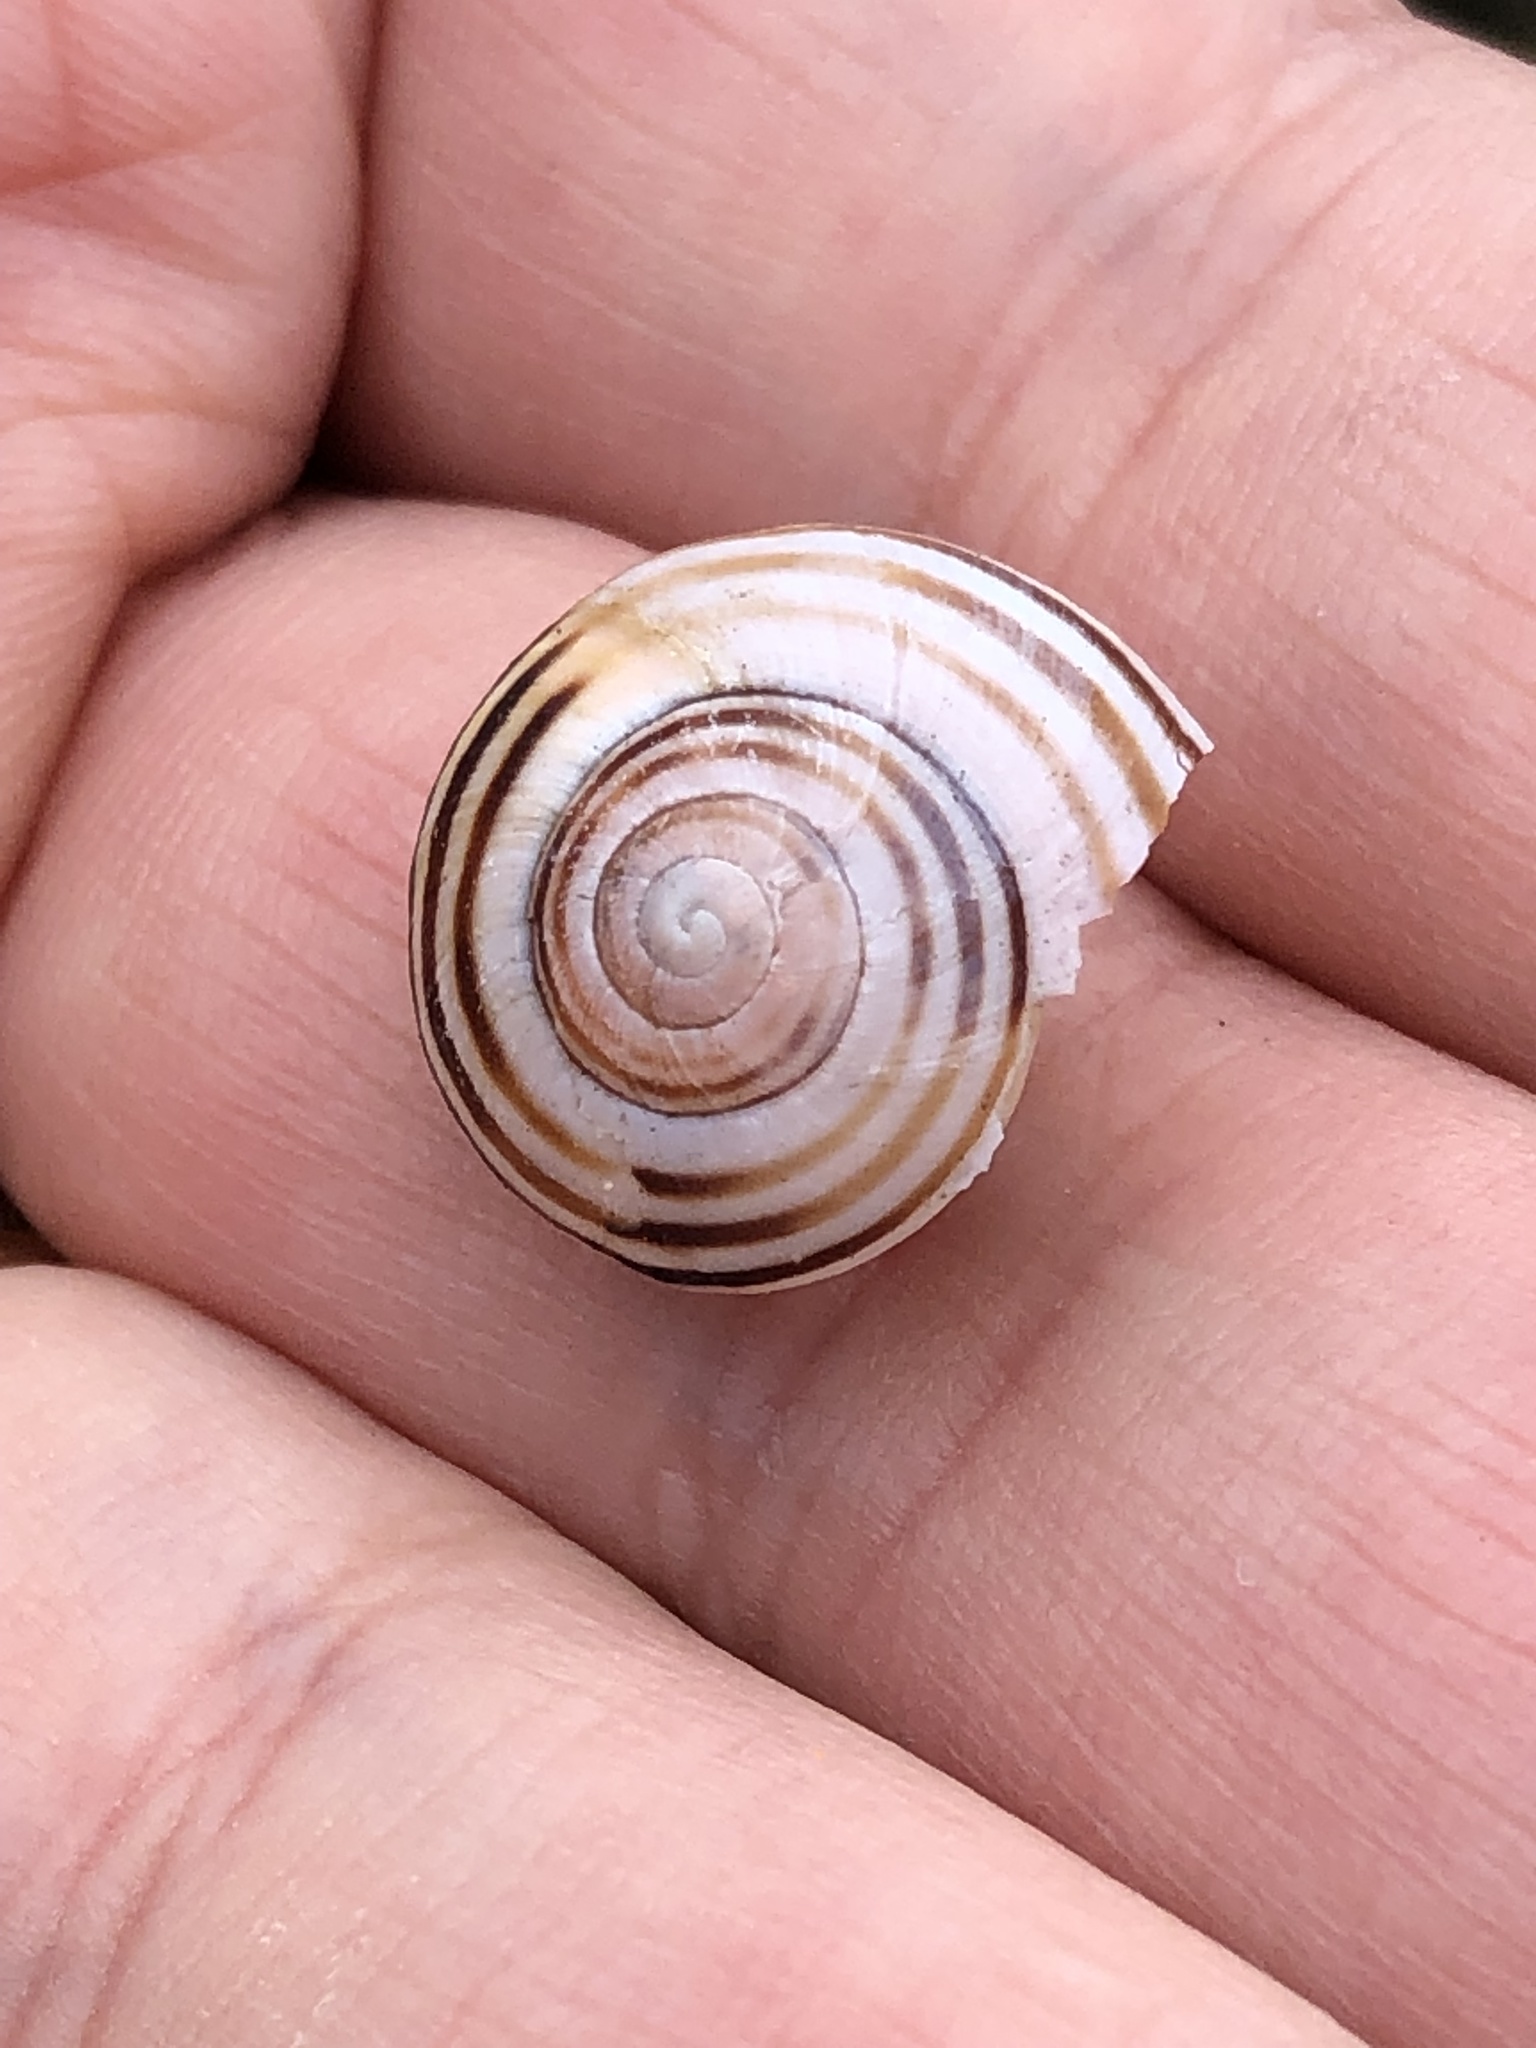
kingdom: Animalia
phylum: Mollusca
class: Gastropoda
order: Stylommatophora
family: Helicidae
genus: Cepaea
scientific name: Cepaea
